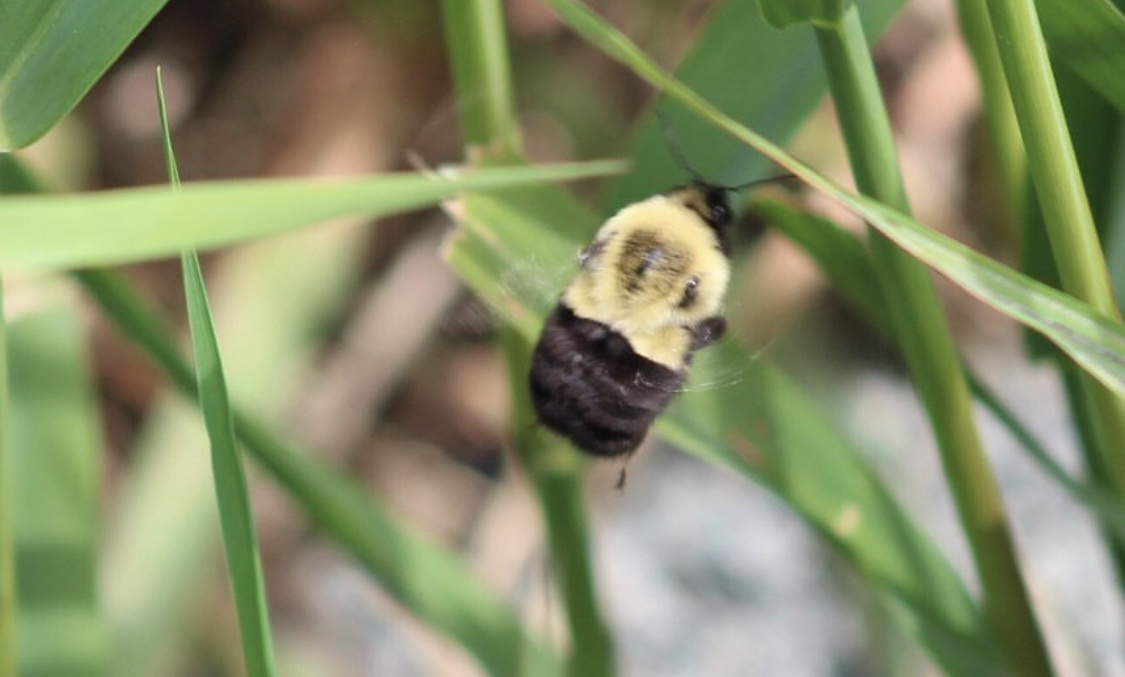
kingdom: Animalia
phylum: Arthropoda
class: Insecta
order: Hymenoptera
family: Apidae
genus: Bombus
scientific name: Bombus impatiens
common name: Common eastern bumble bee
